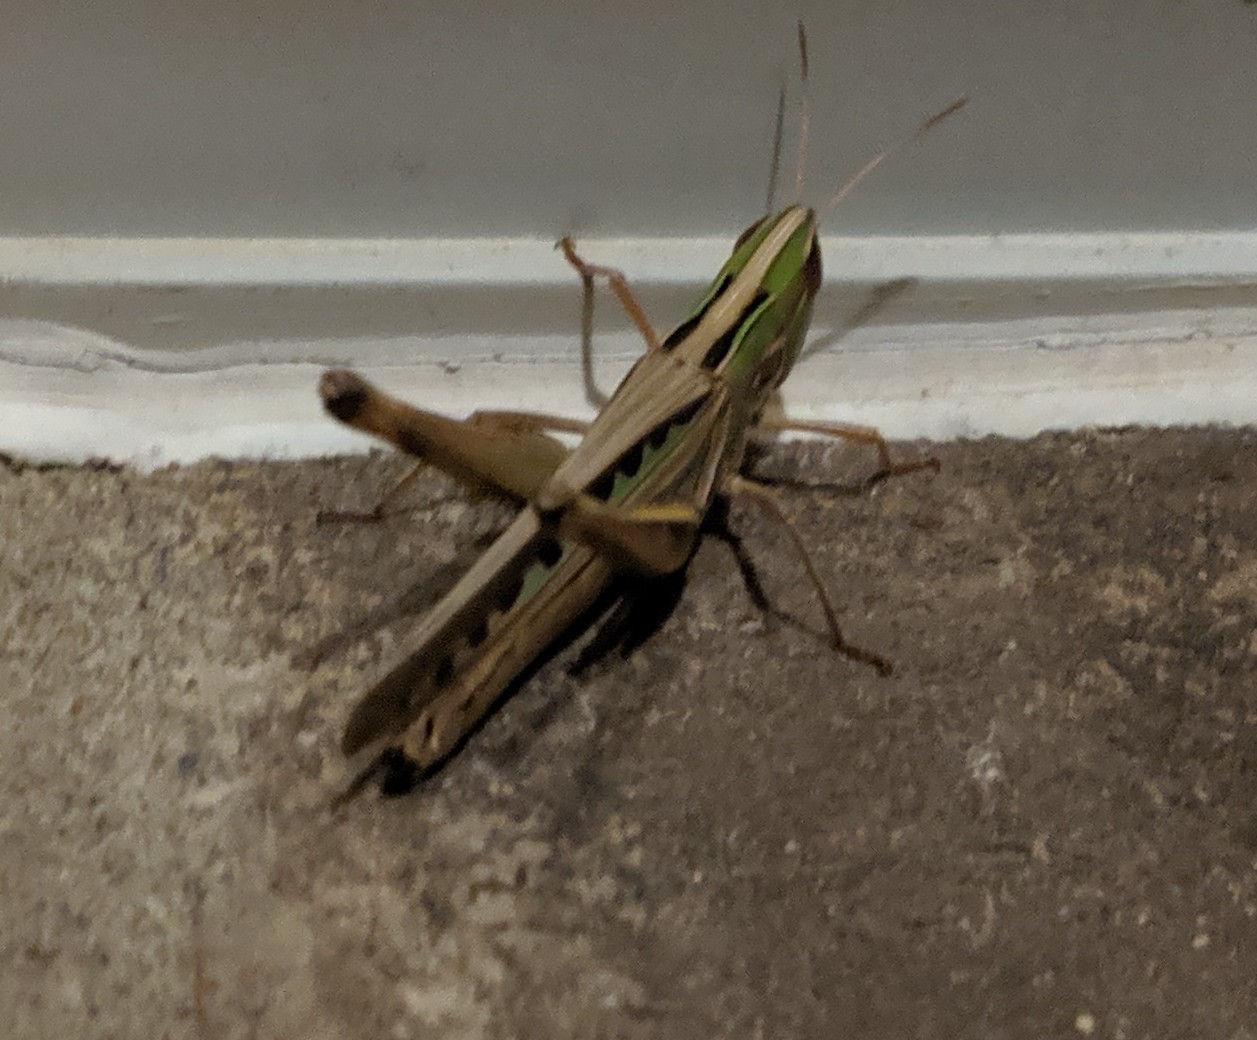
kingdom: Animalia
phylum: Arthropoda
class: Insecta
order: Orthoptera
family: Acrididae
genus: Syrbula
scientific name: Syrbula admirabilis
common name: Handsome grasshopper
